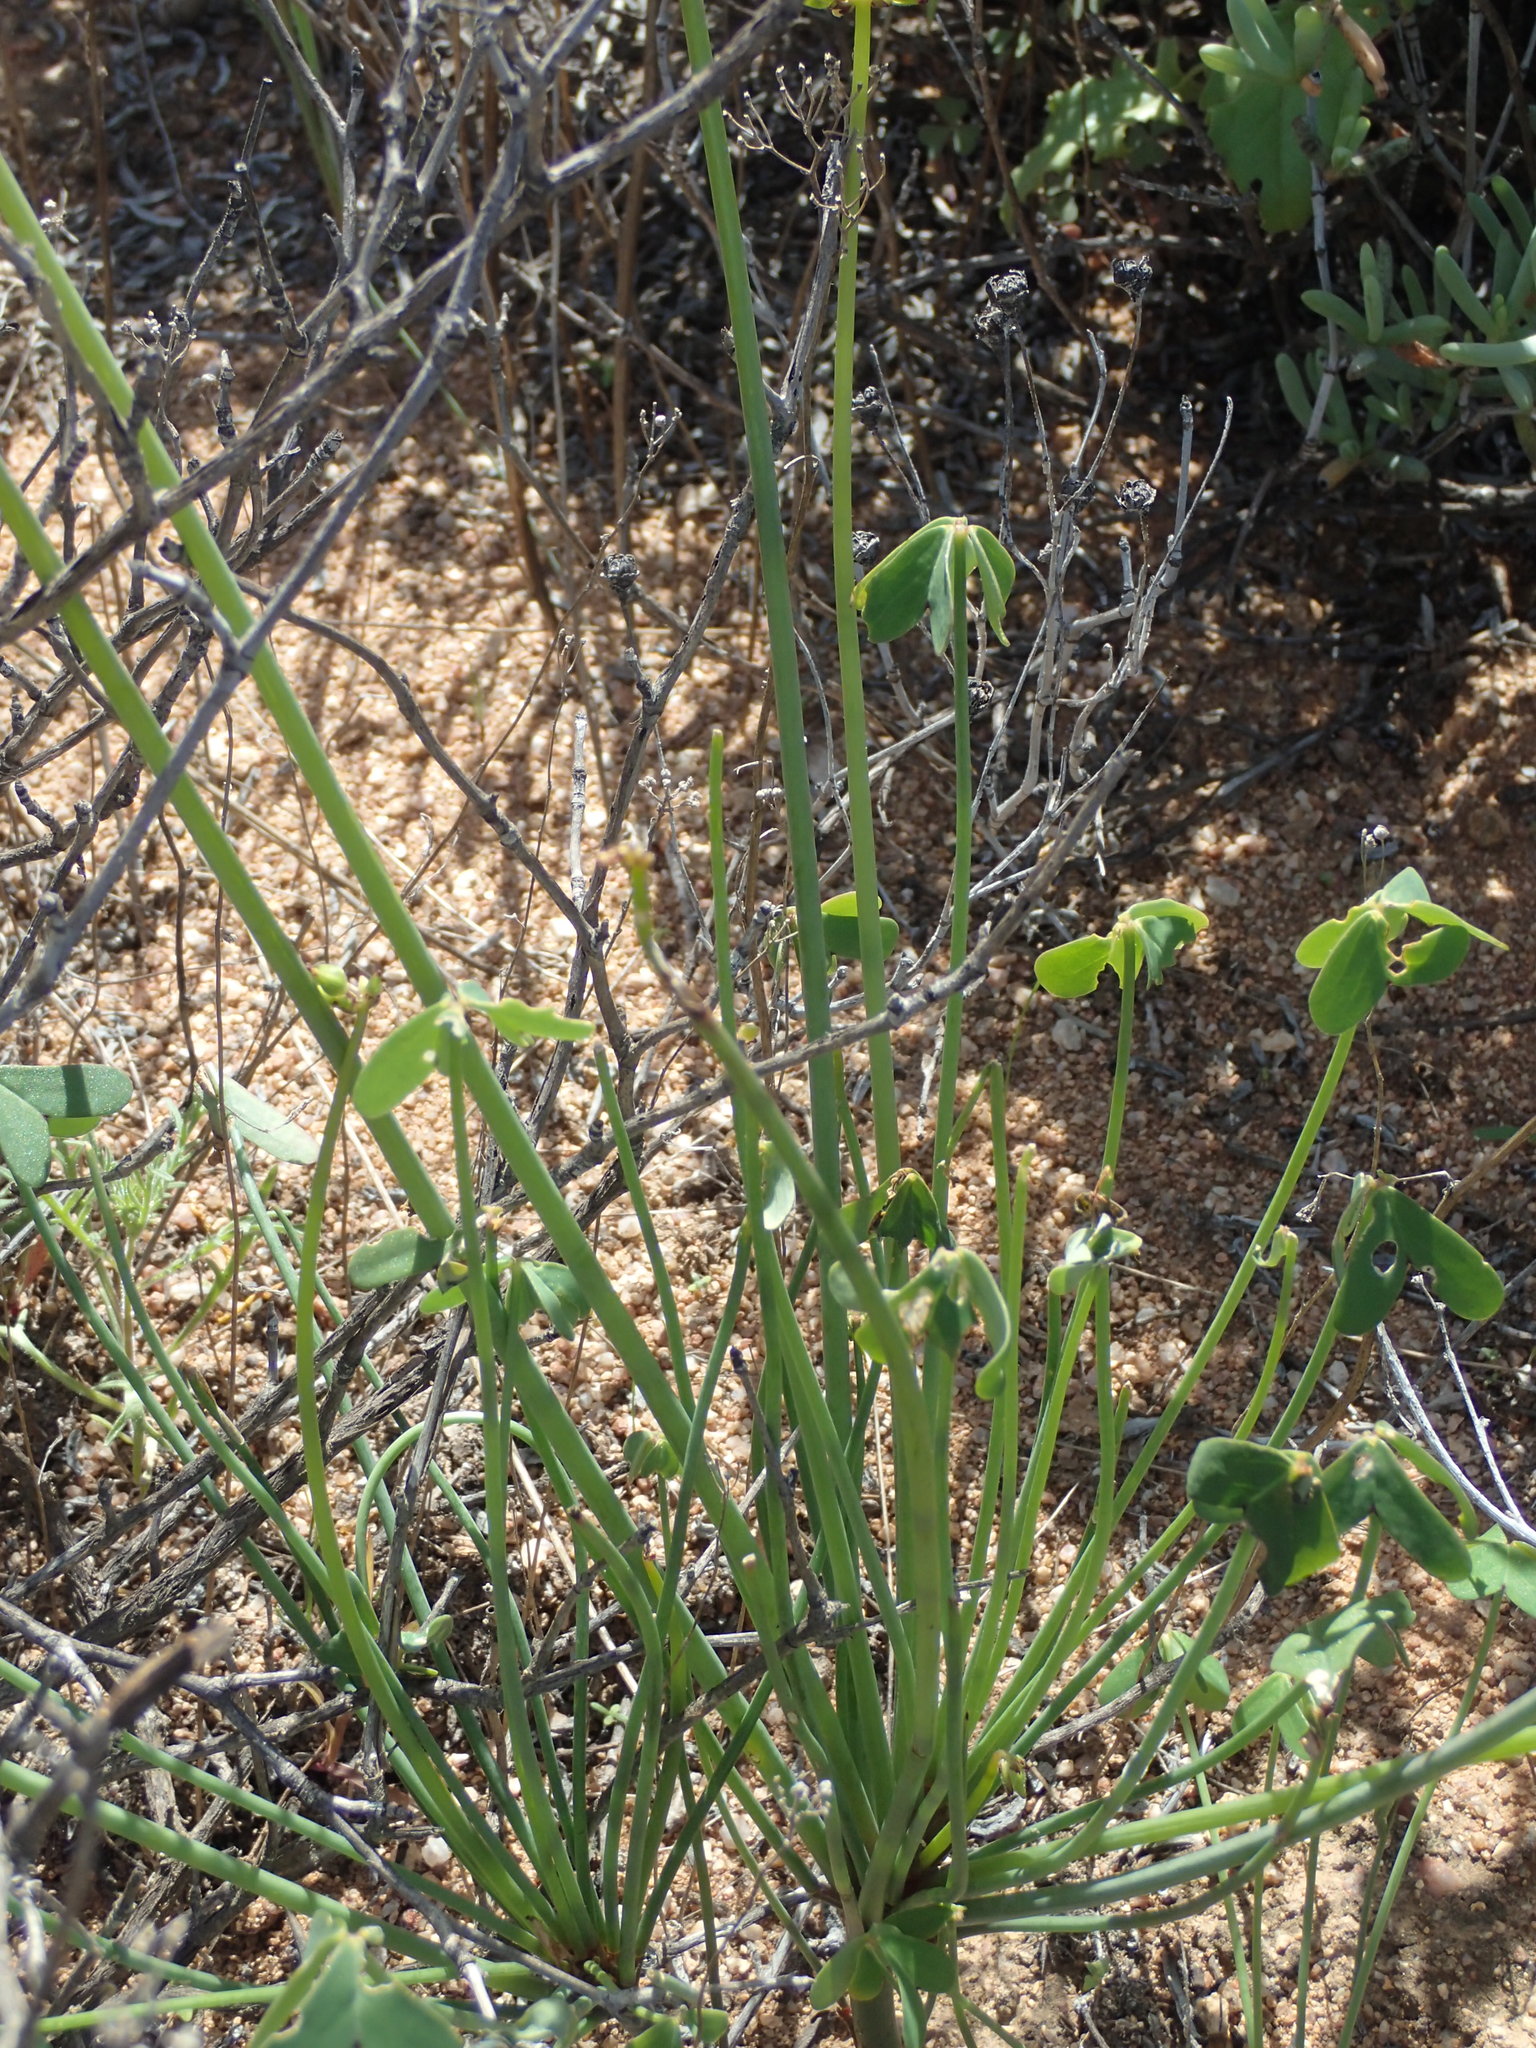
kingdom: Plantae
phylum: Tracheophyta
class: Magnoliopsida
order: Oxalidales
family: Oxalidaceae
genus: Oxalis
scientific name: Oxalis pes-caprae
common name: Bermuda-buttercup
